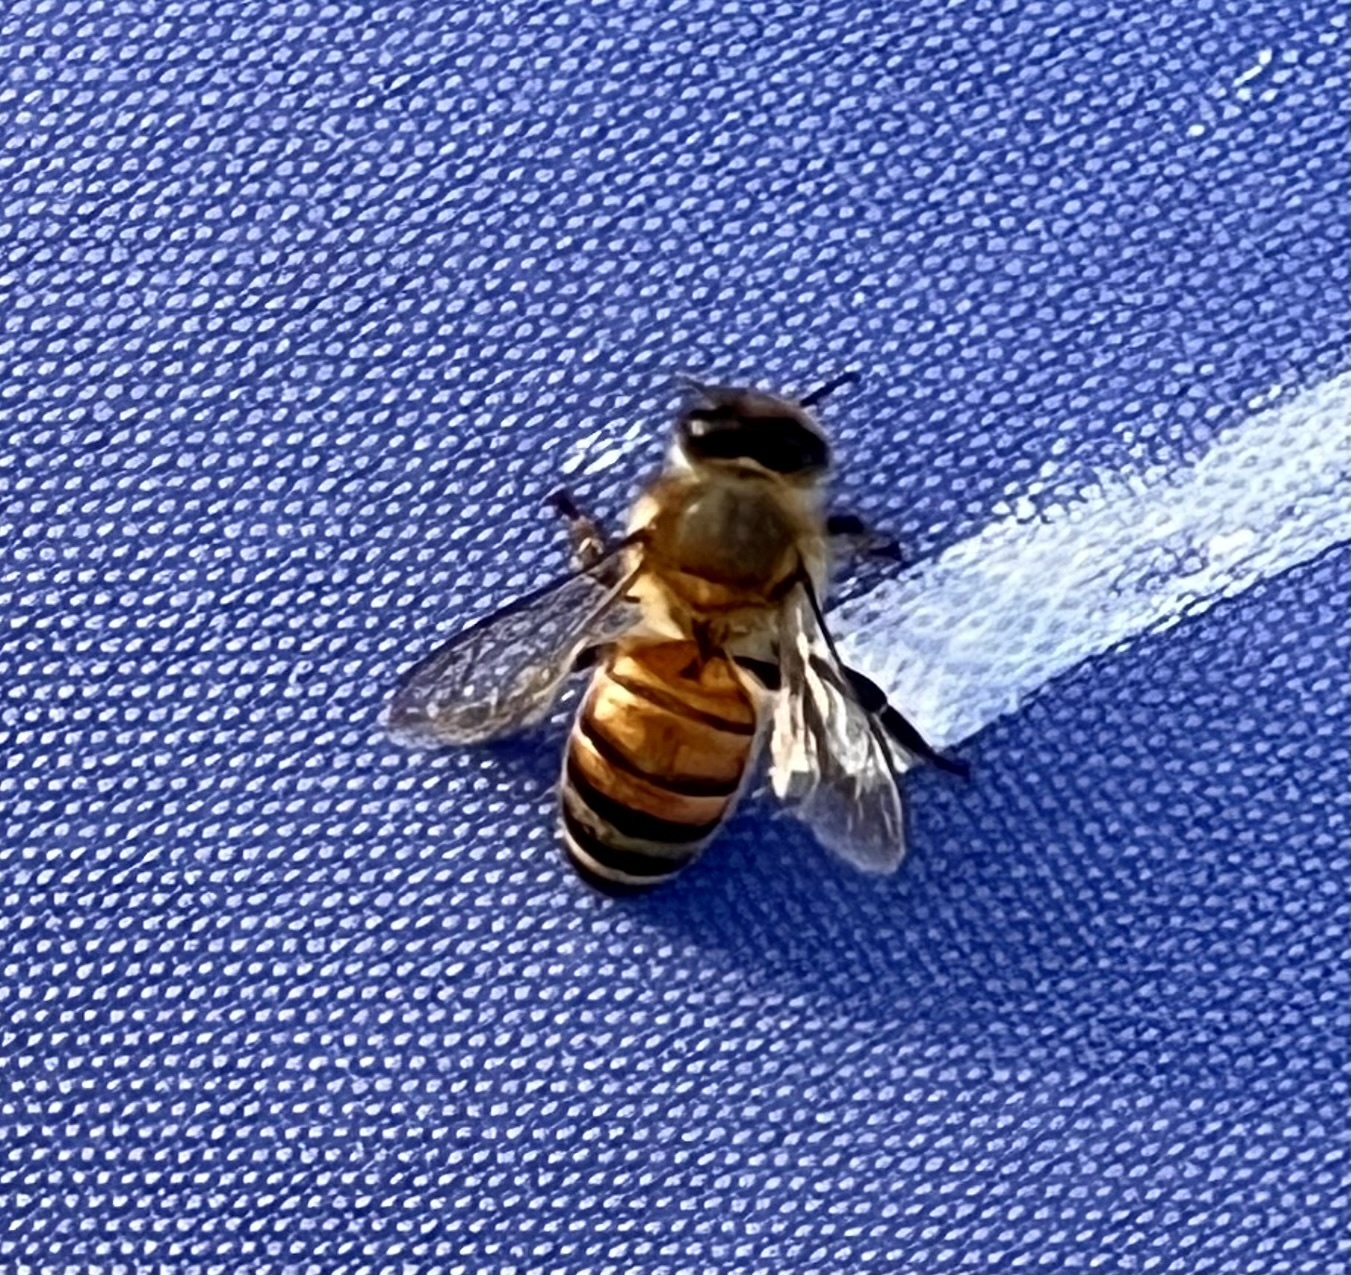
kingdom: Animalia
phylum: Arthropoda
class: Insecta
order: Hymenoptera
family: Apidae
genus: Apis
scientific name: Apis mellifera
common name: Honey bee
